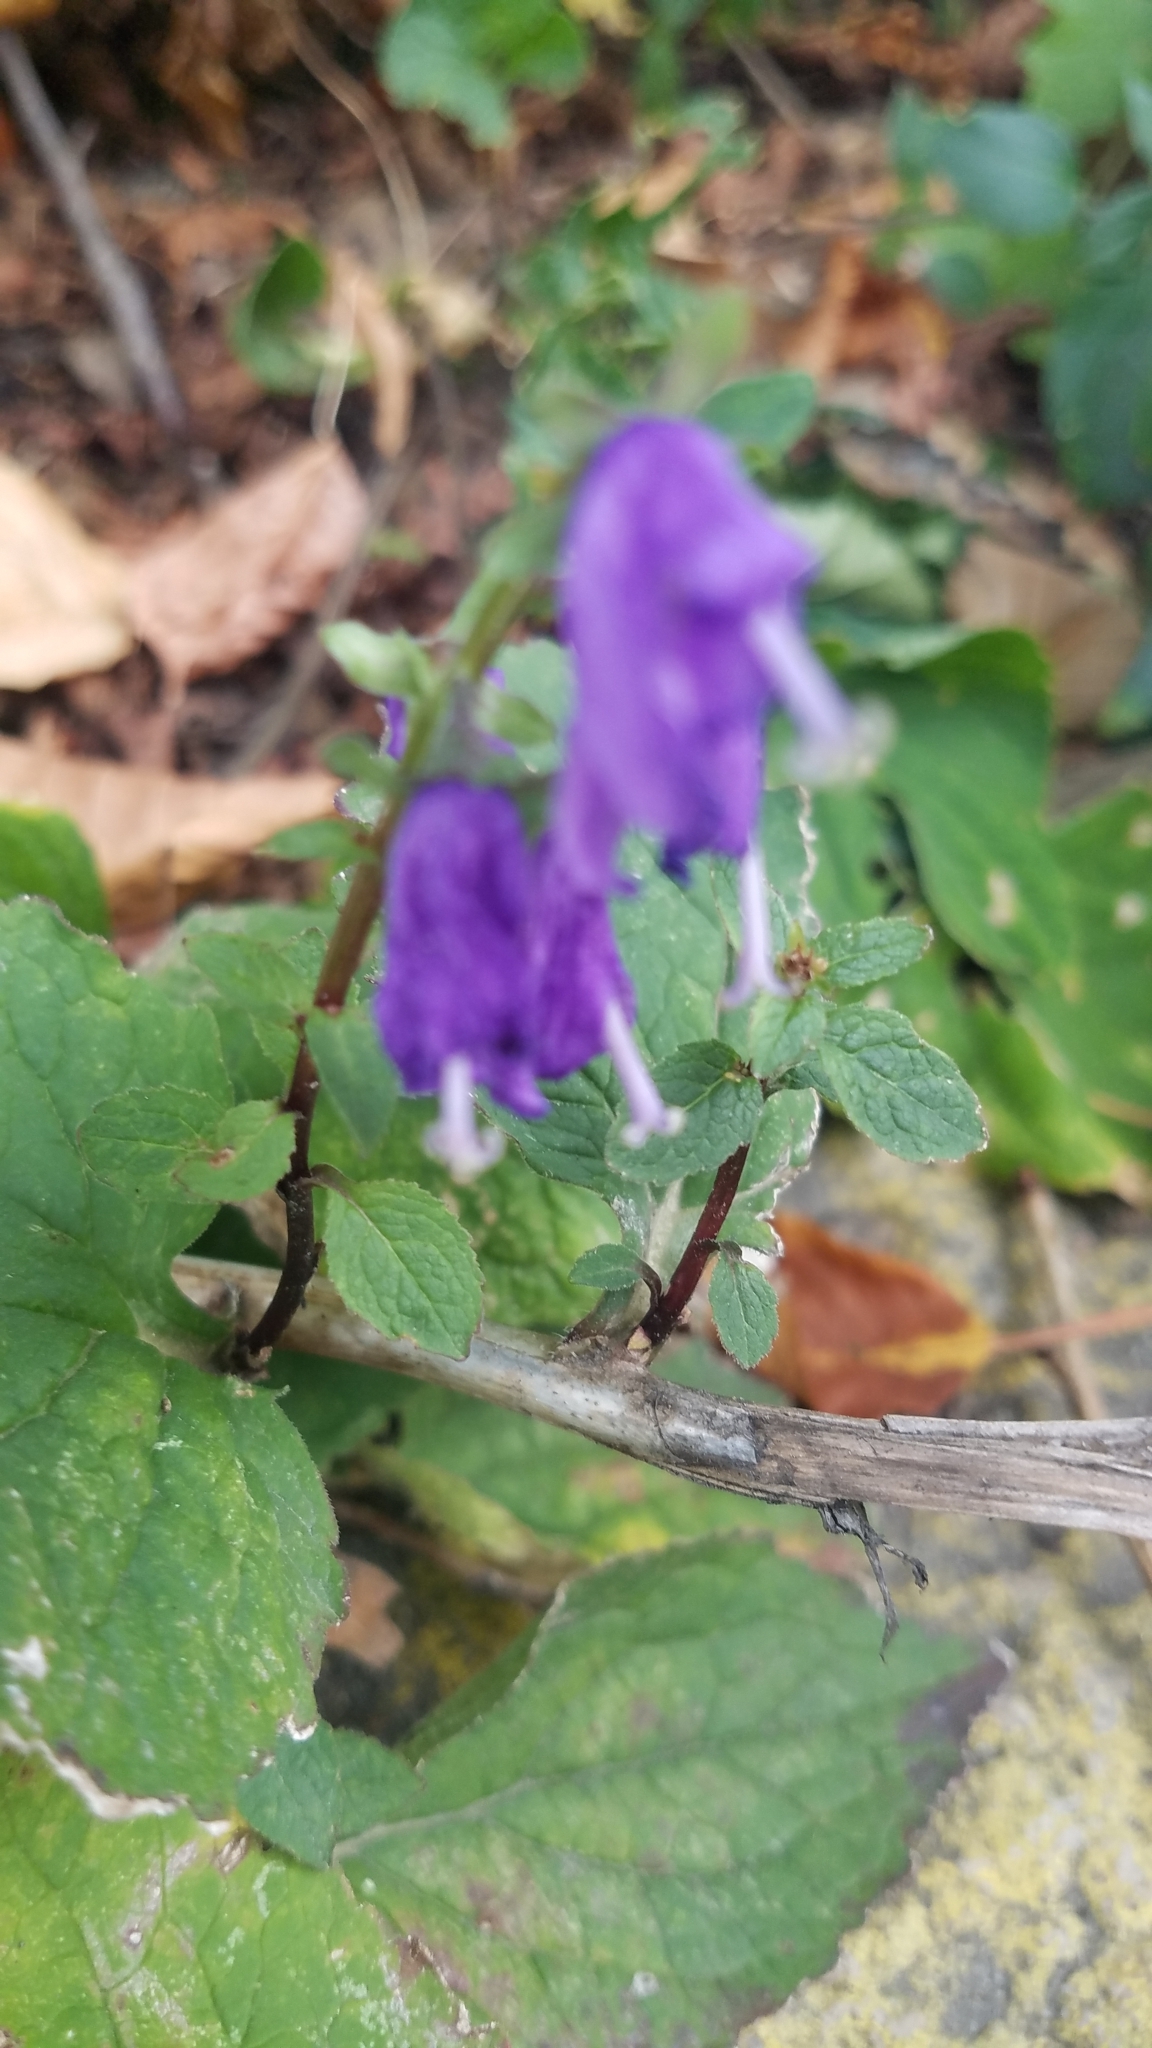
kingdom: Plantae
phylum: Tracheophyta
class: Magnoliopsida
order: Asterales
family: Campanulaceae
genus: Campanula
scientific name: Campanula rapunculoides
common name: Creeping bellflower
